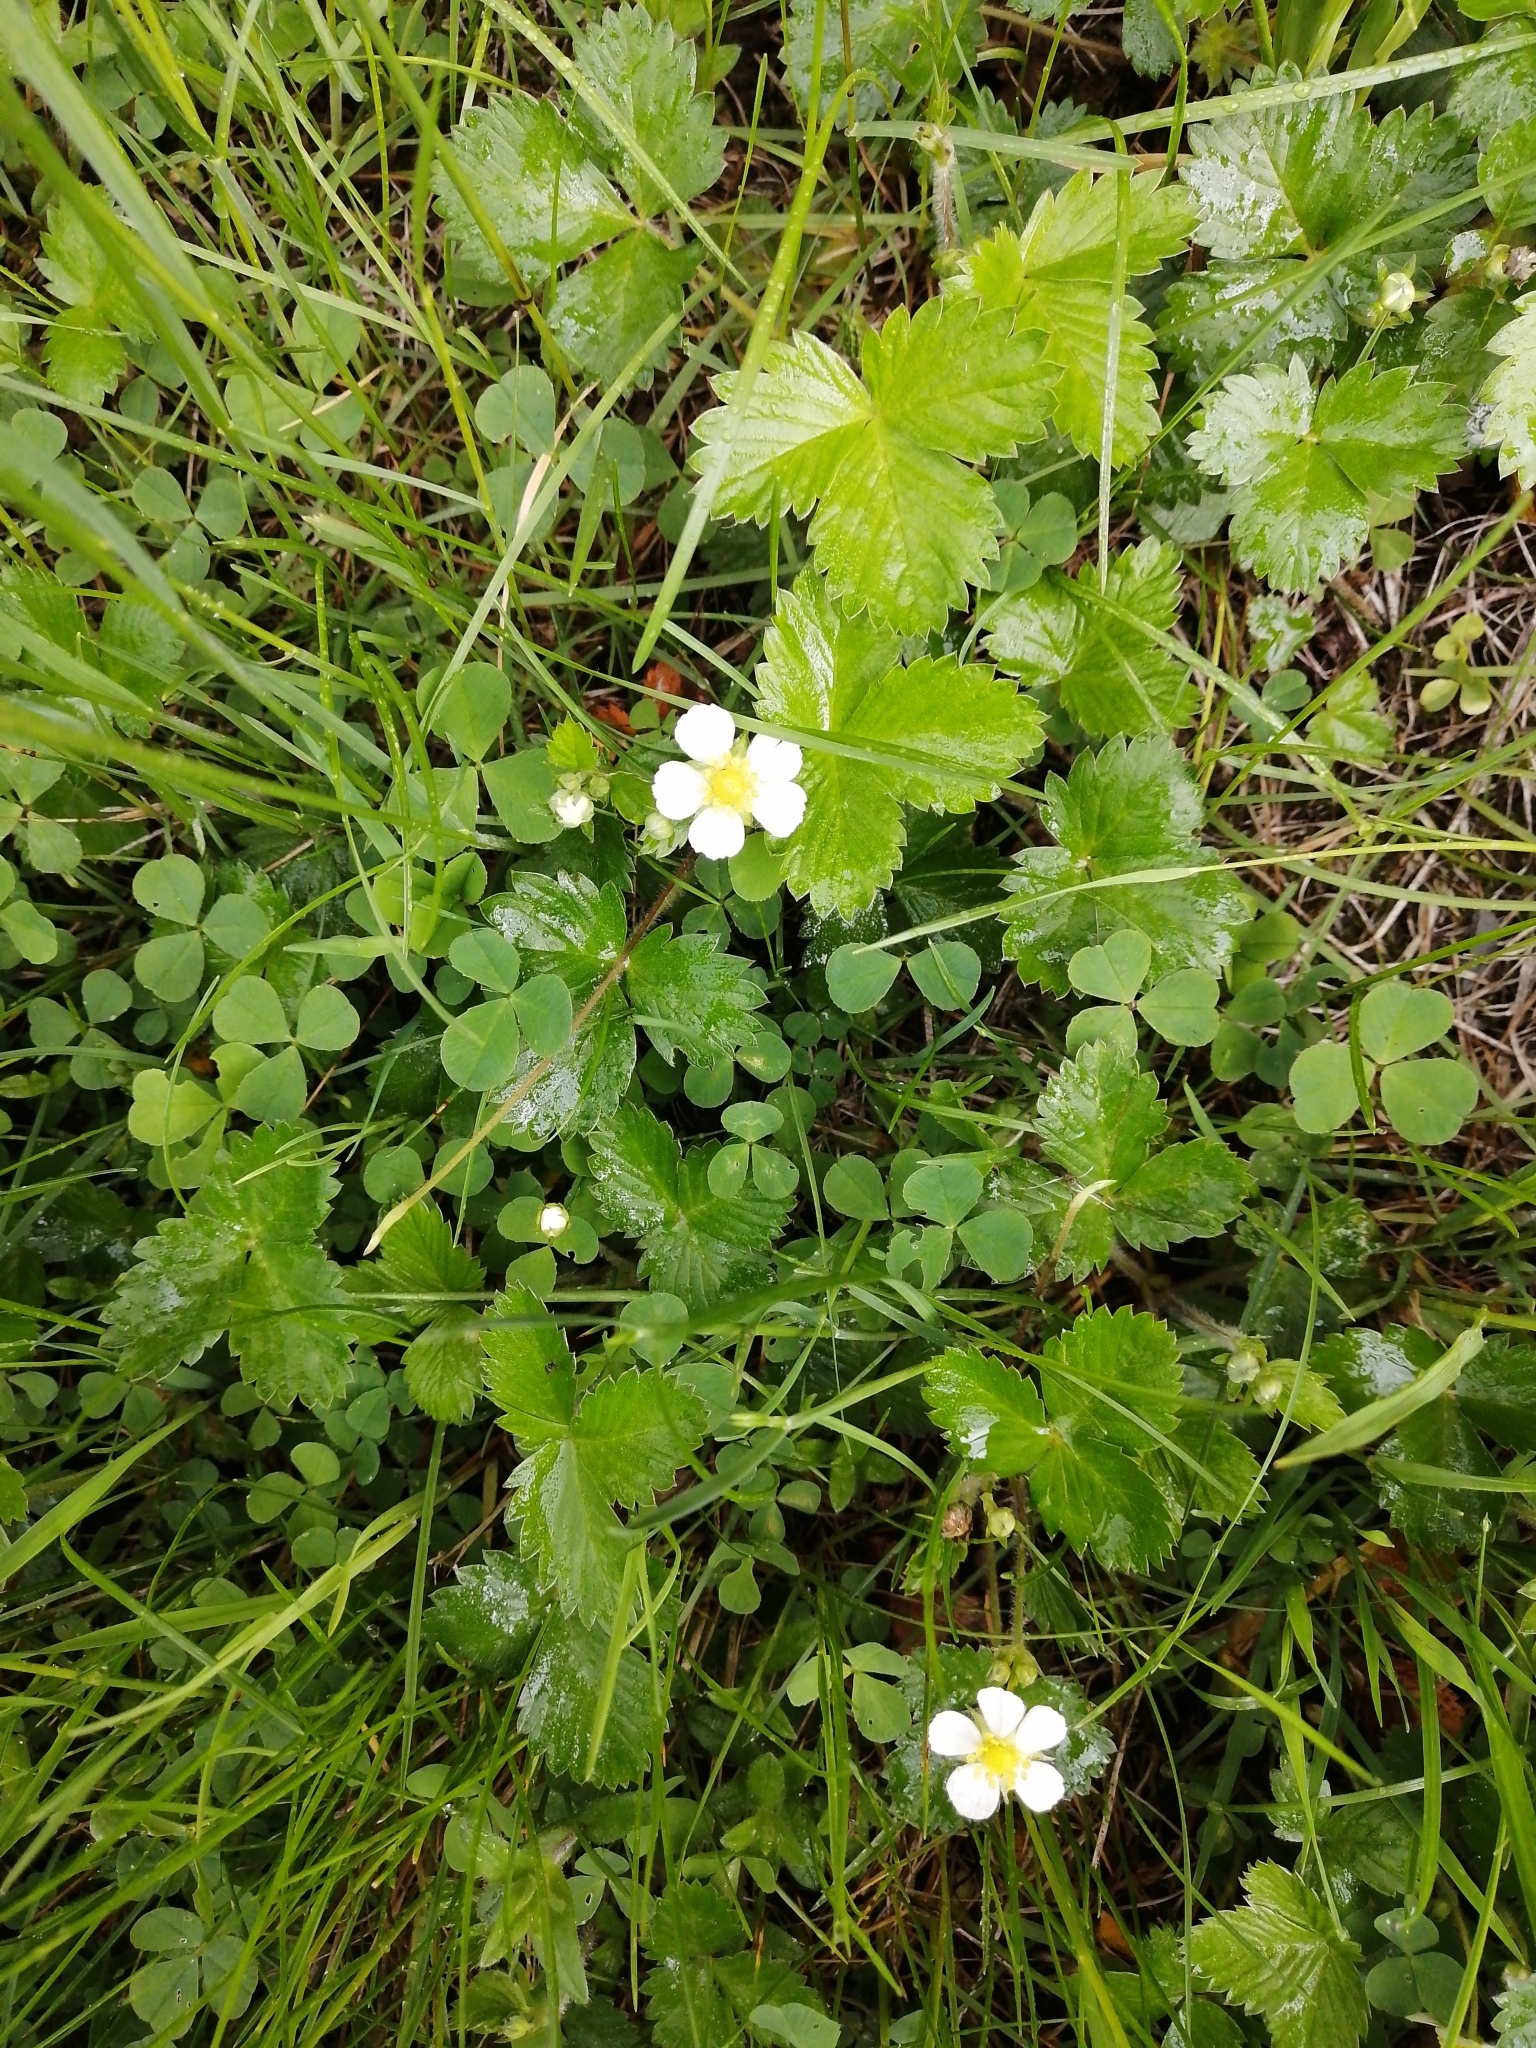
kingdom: Plantae
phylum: Tracheophyta
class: Magnoliopsida
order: Rosales
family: Rosaceae
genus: Fragaria
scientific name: Fragaria vesca
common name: Wild strawberry
